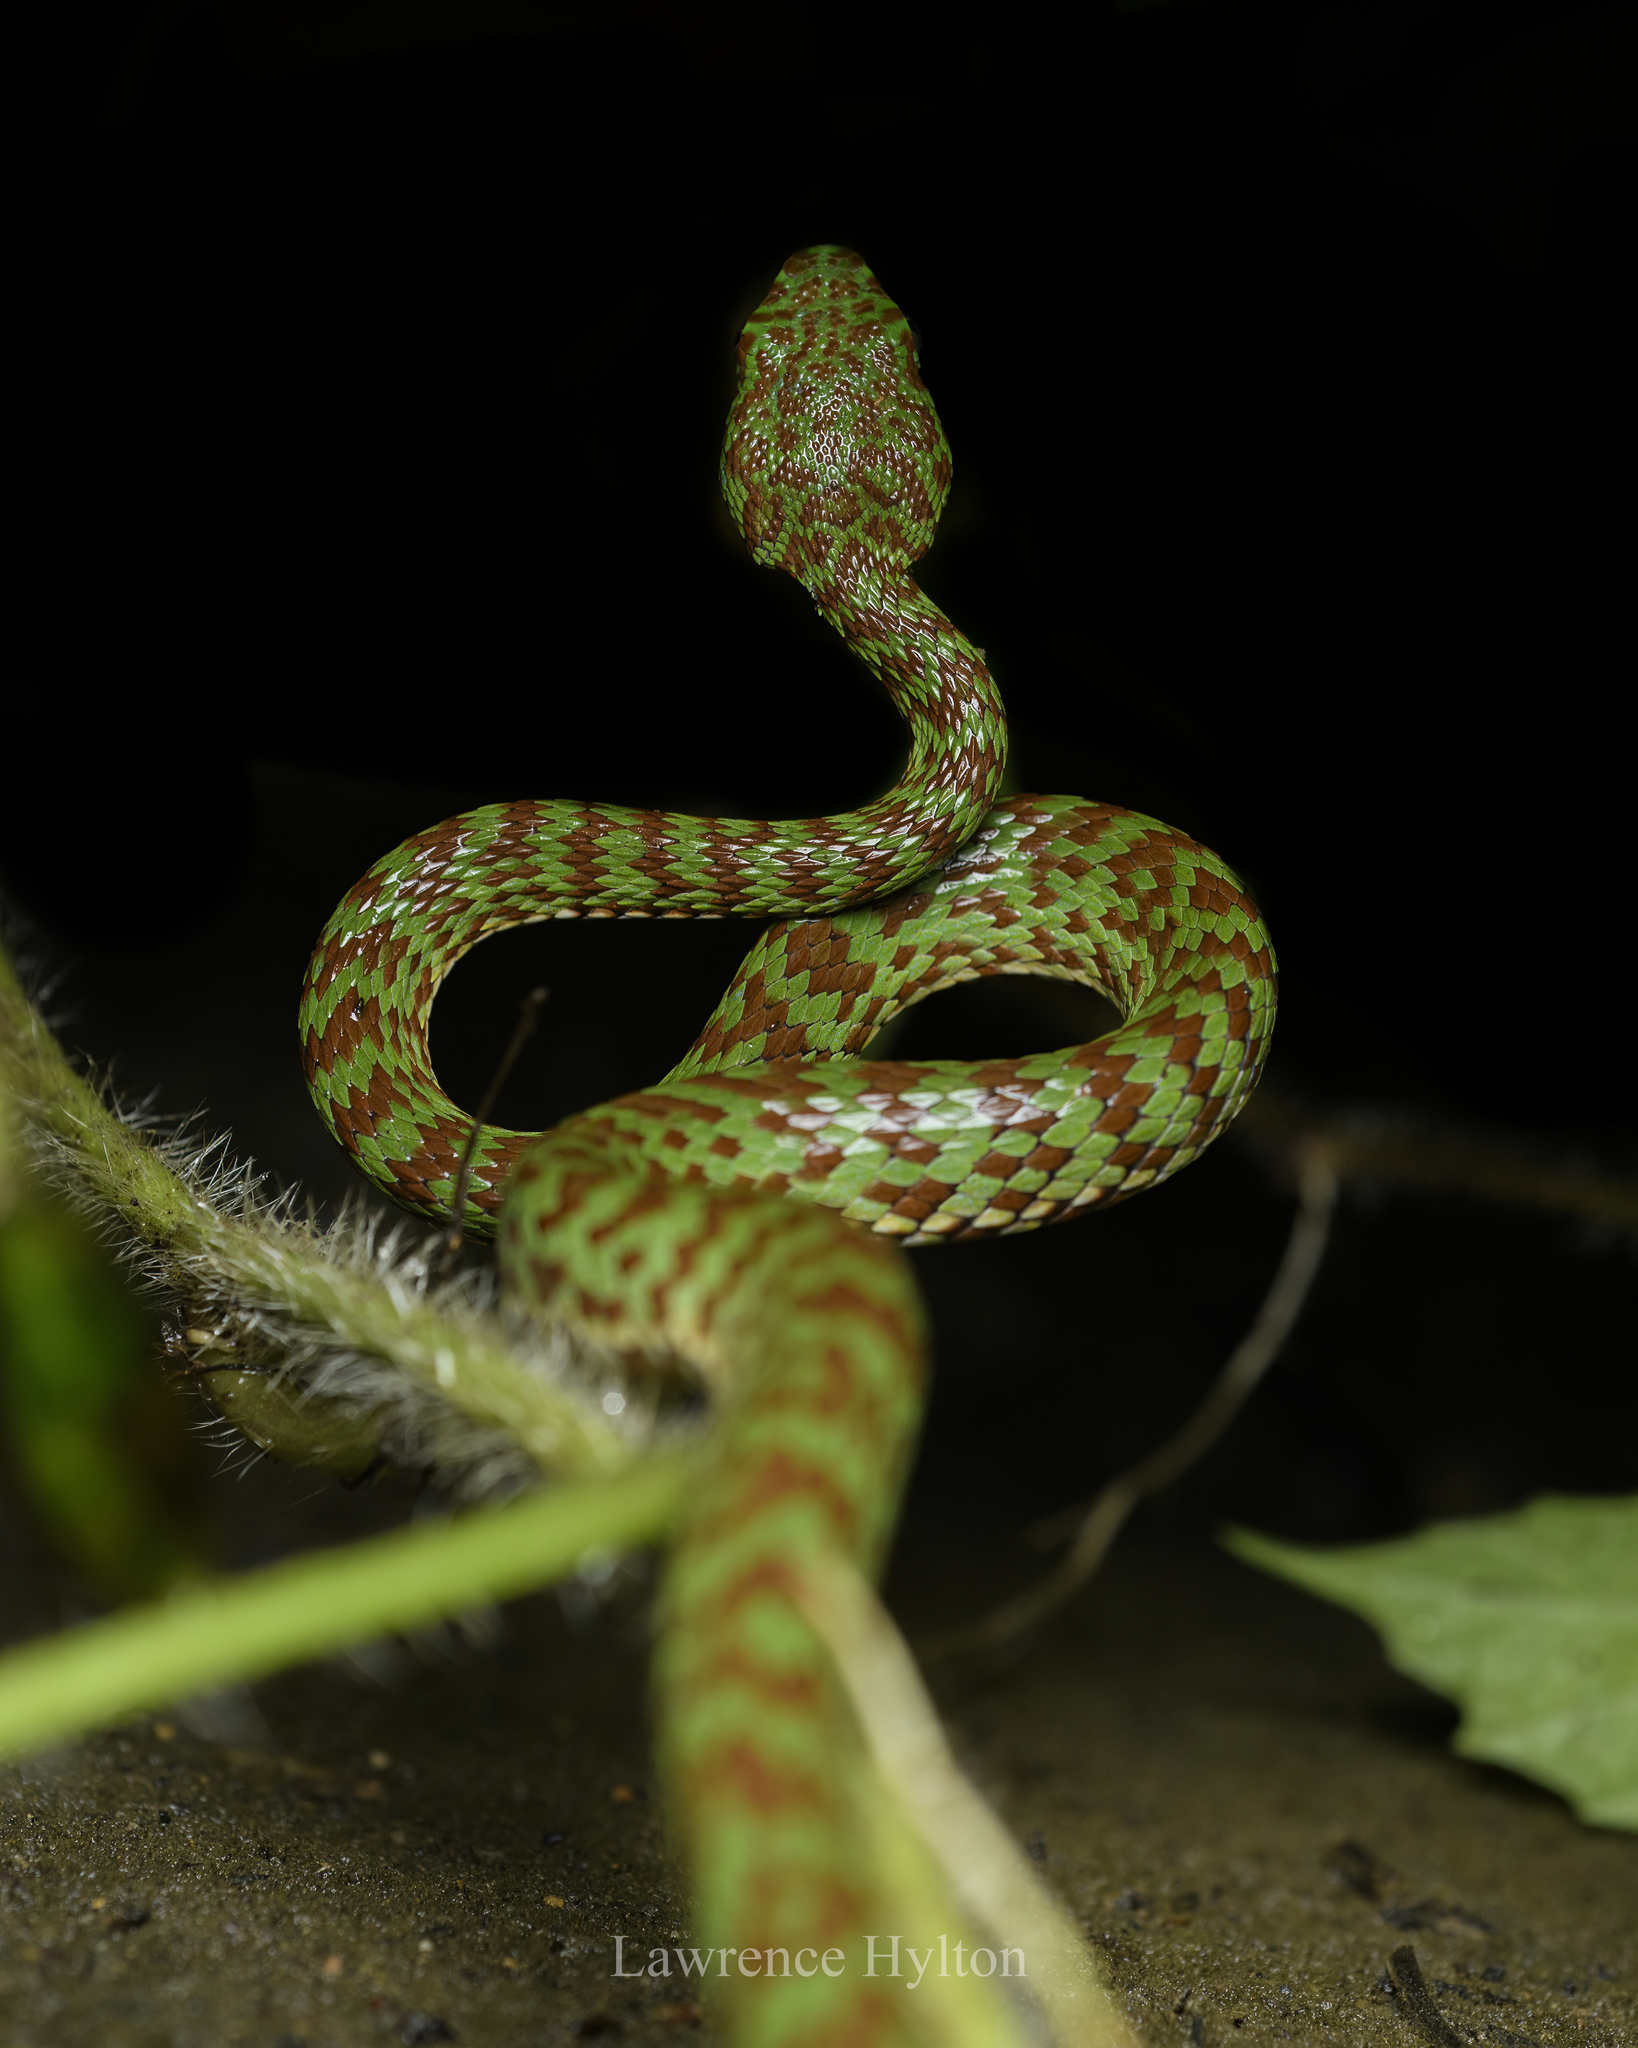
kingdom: Animalia
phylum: Chordata
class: Squamata
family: Viperidae
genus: Trimeresurus
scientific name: Trimeresurus venustus
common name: Brown-spotted pit viper
